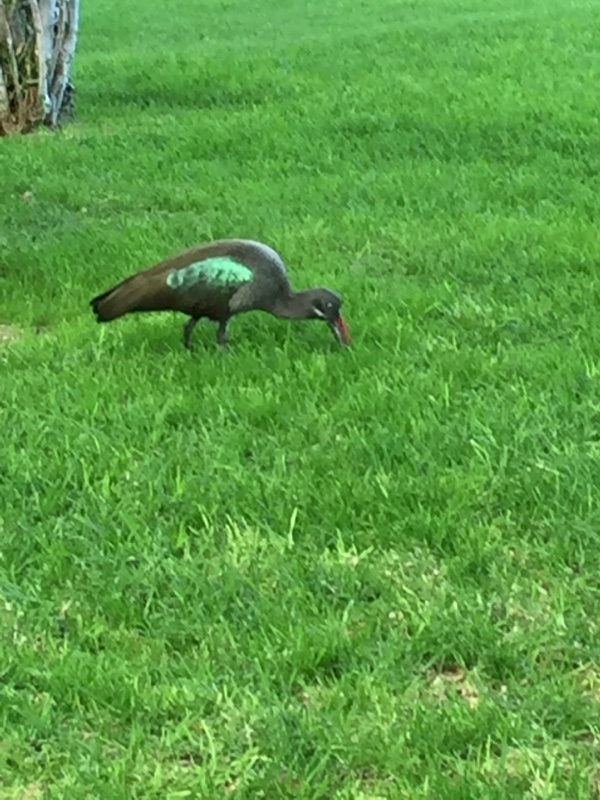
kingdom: Animalia
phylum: Chordata
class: Aves
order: Pelecaniformes
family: Threskiornithidae
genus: Bostrychia
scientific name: Bostrychia hagedash
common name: Hadada ibis
